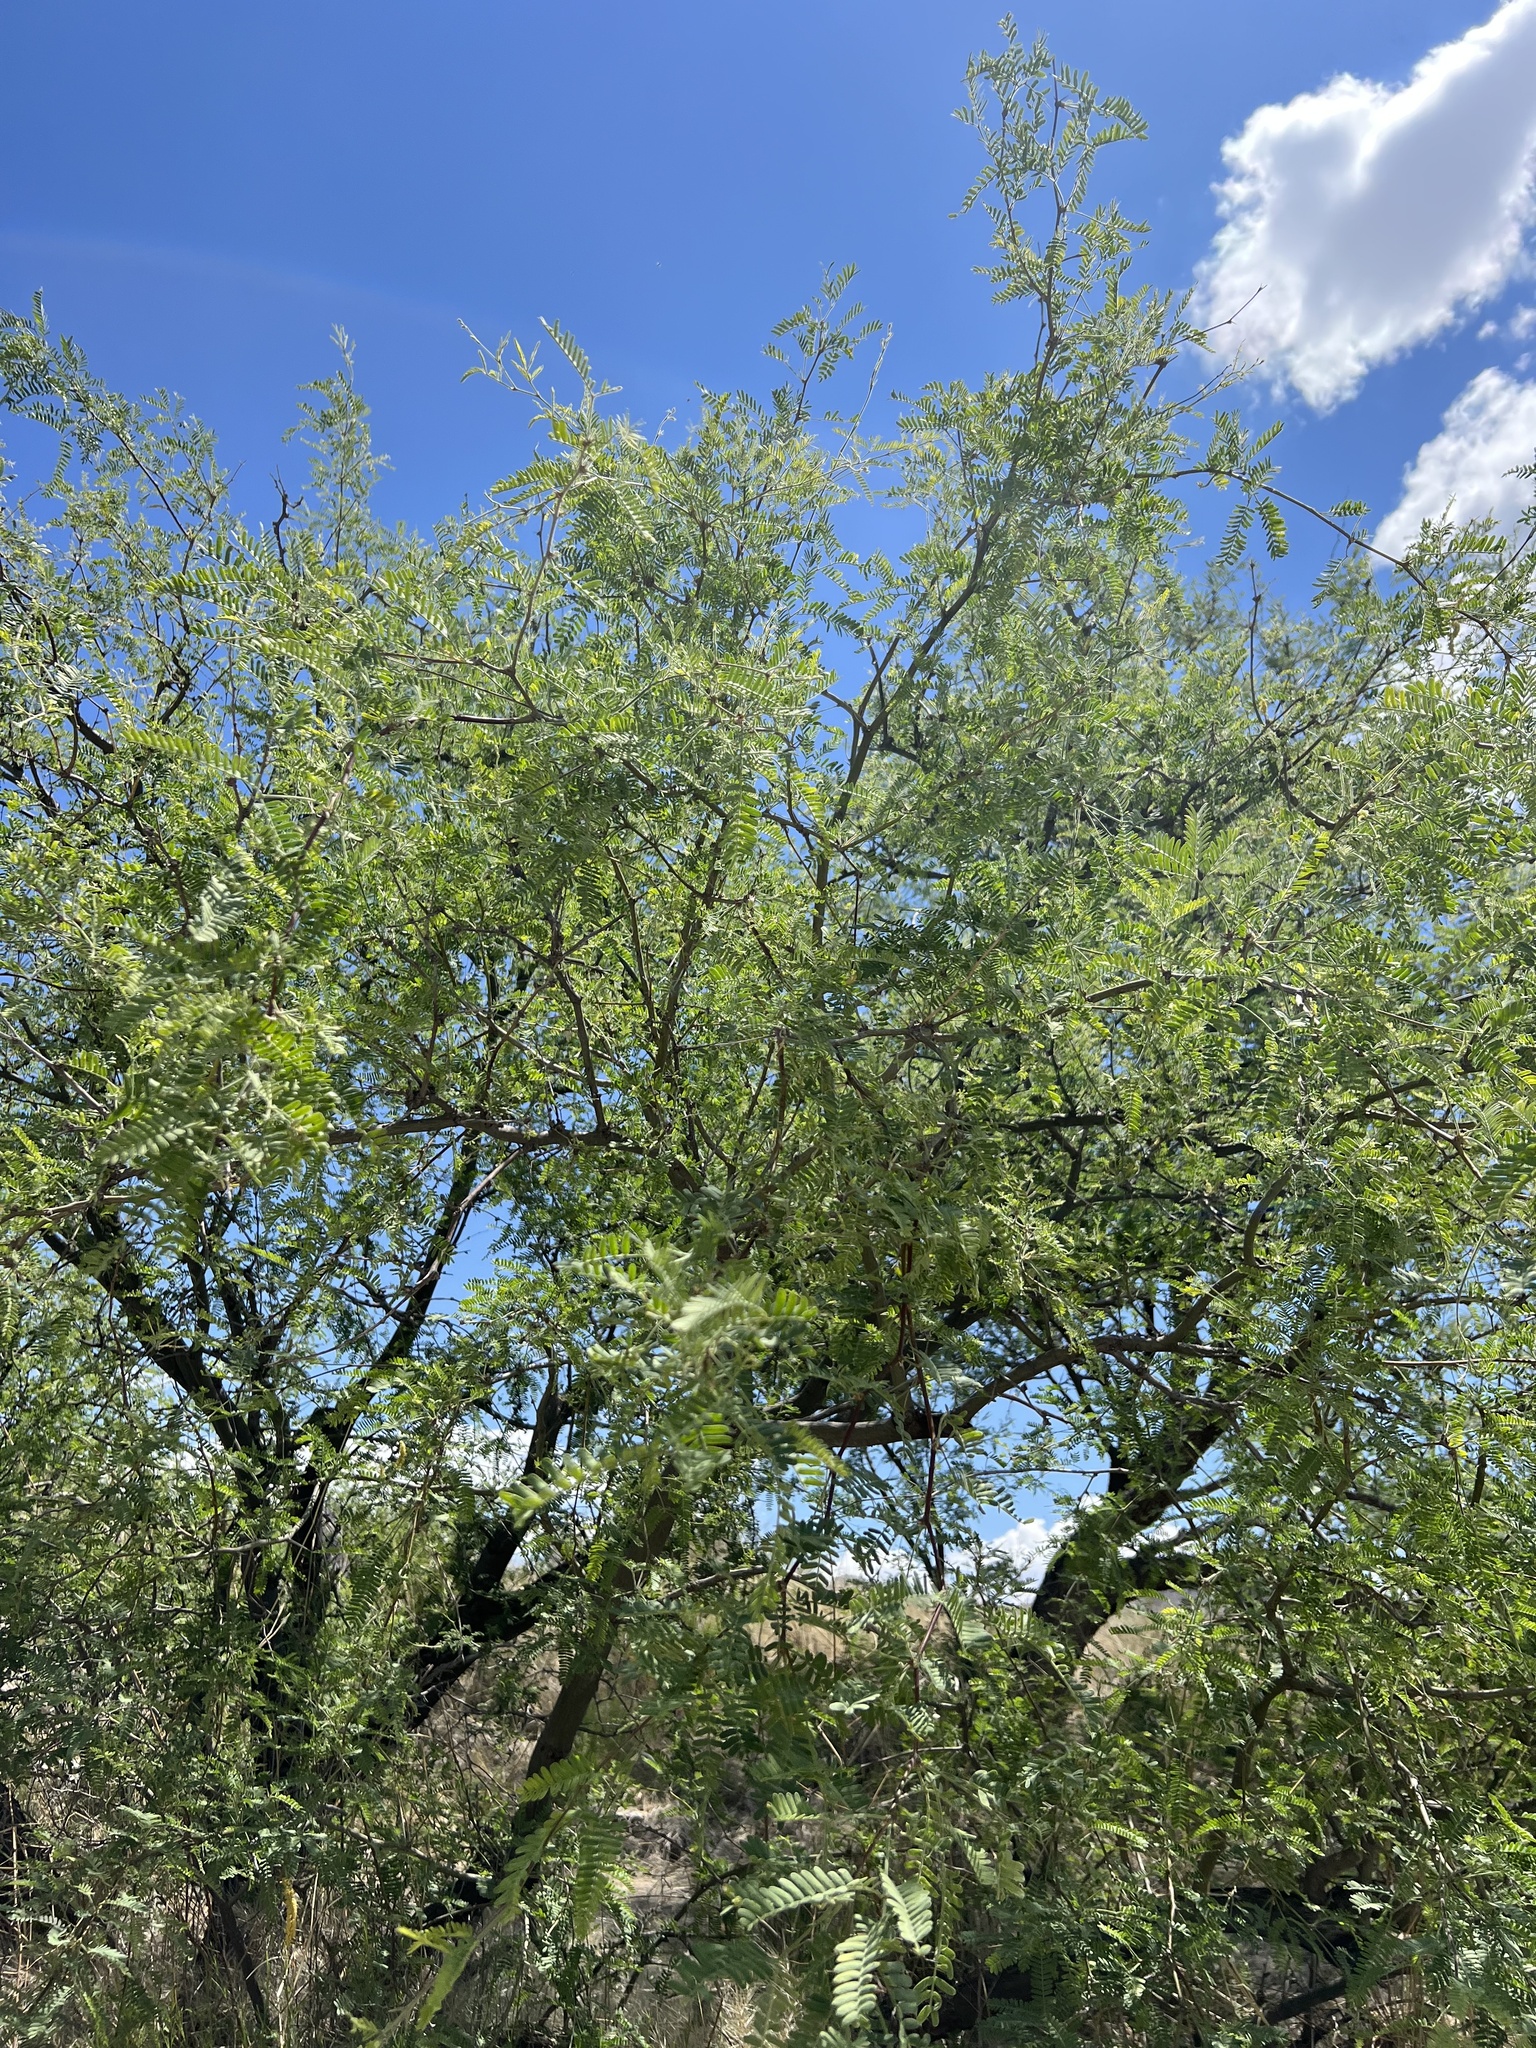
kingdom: Plantae
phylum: Tracheophyta
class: Magnoliopsida
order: Fabales
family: Fabaceae
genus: Prosopis
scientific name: Prosopis velutina
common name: Velvet mesquite
